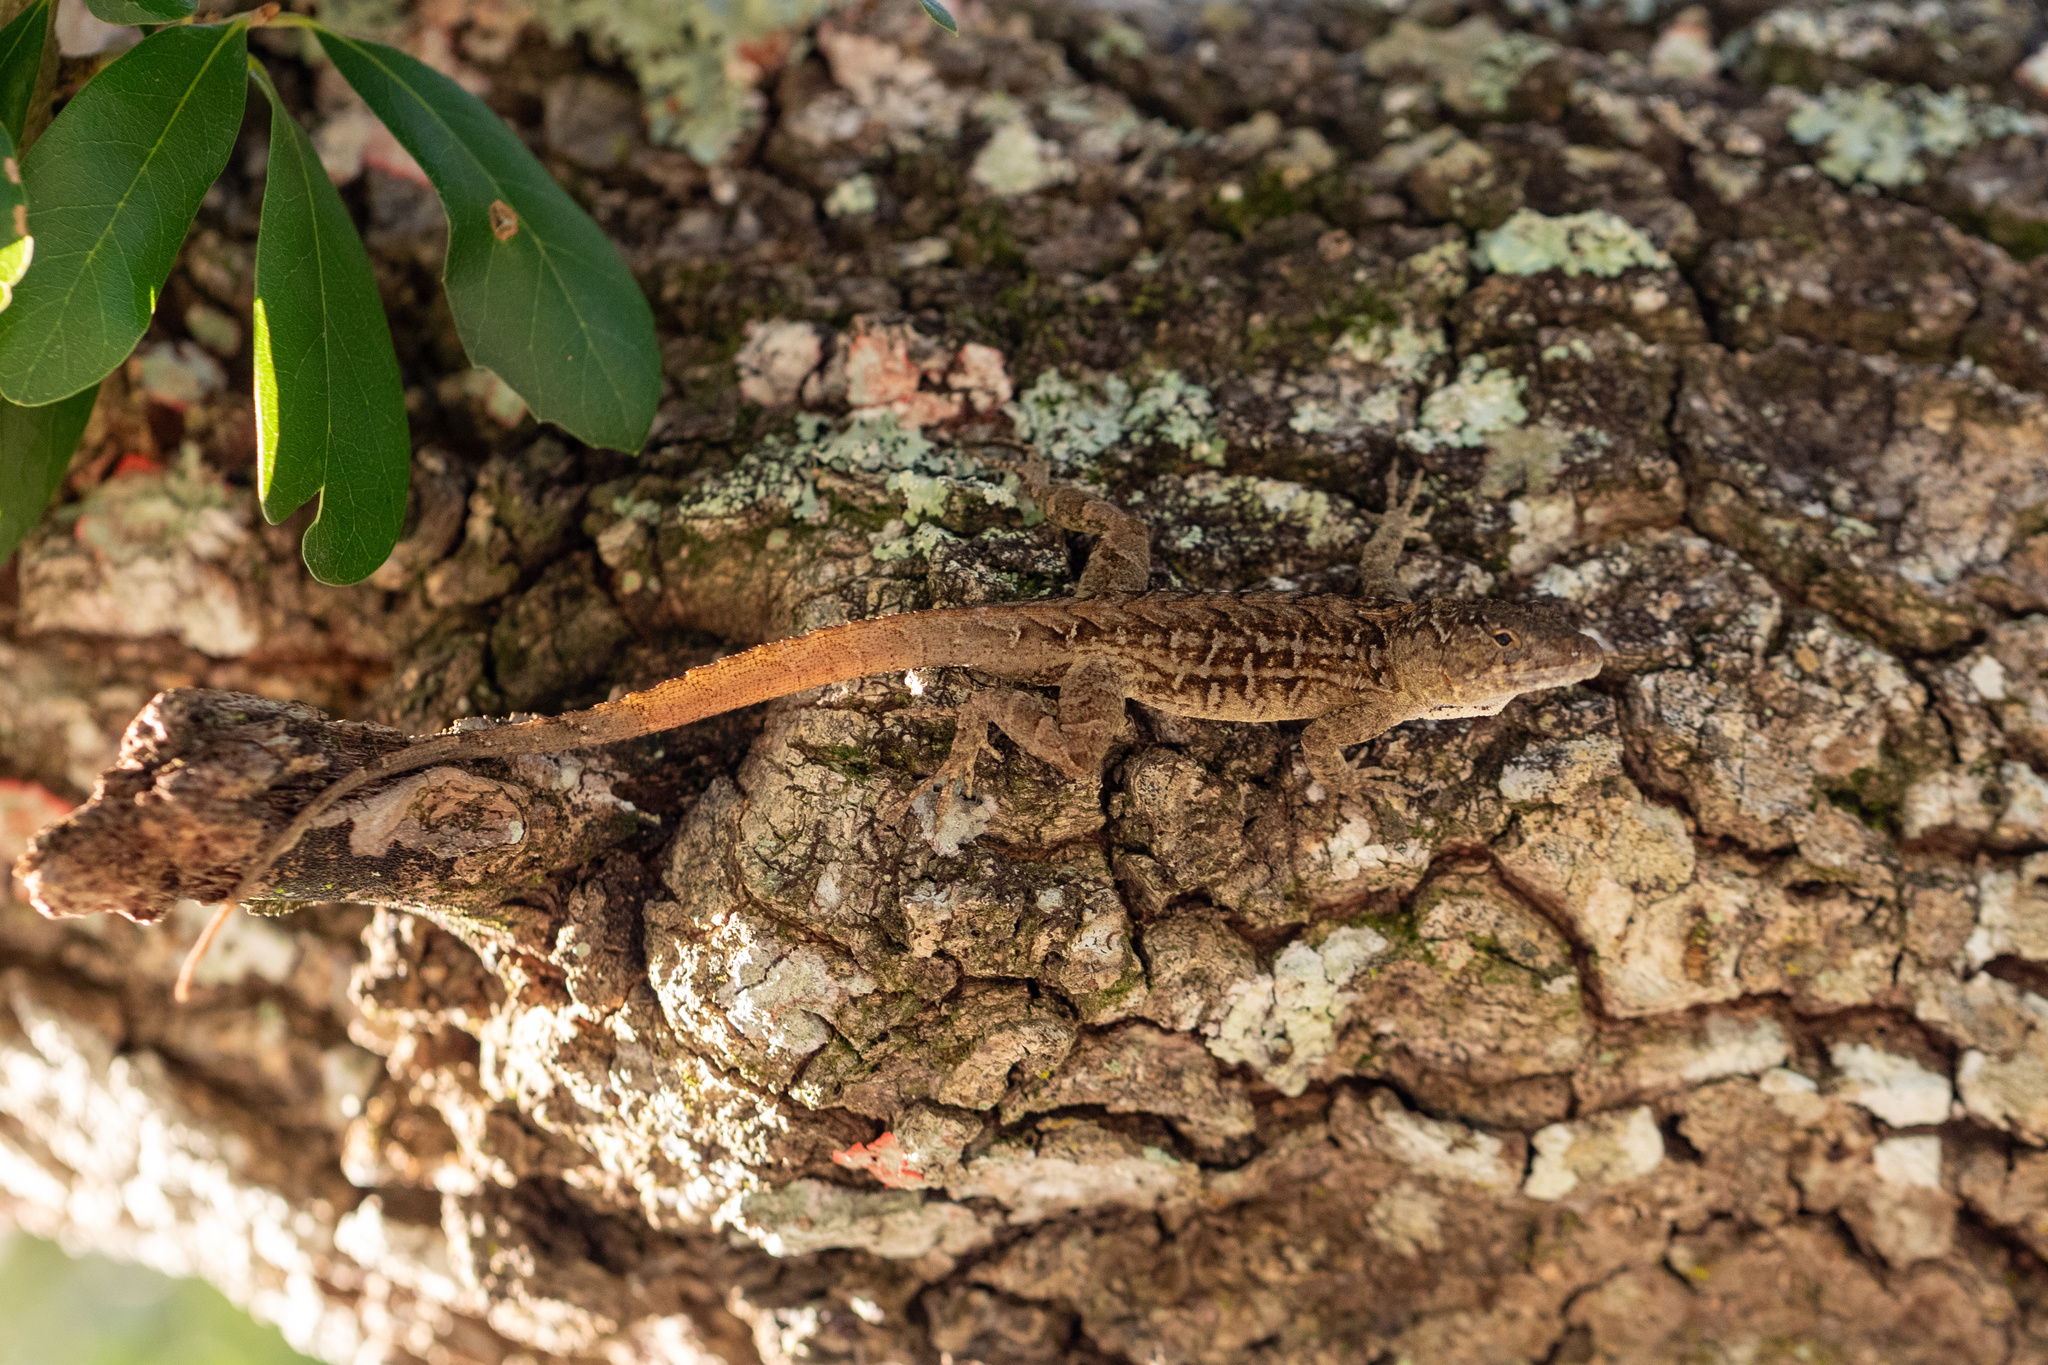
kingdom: Animalia
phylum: Chordata
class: Squamata
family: Dactyloidae
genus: Anolis
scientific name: Anolis sagrei
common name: Brown anole
